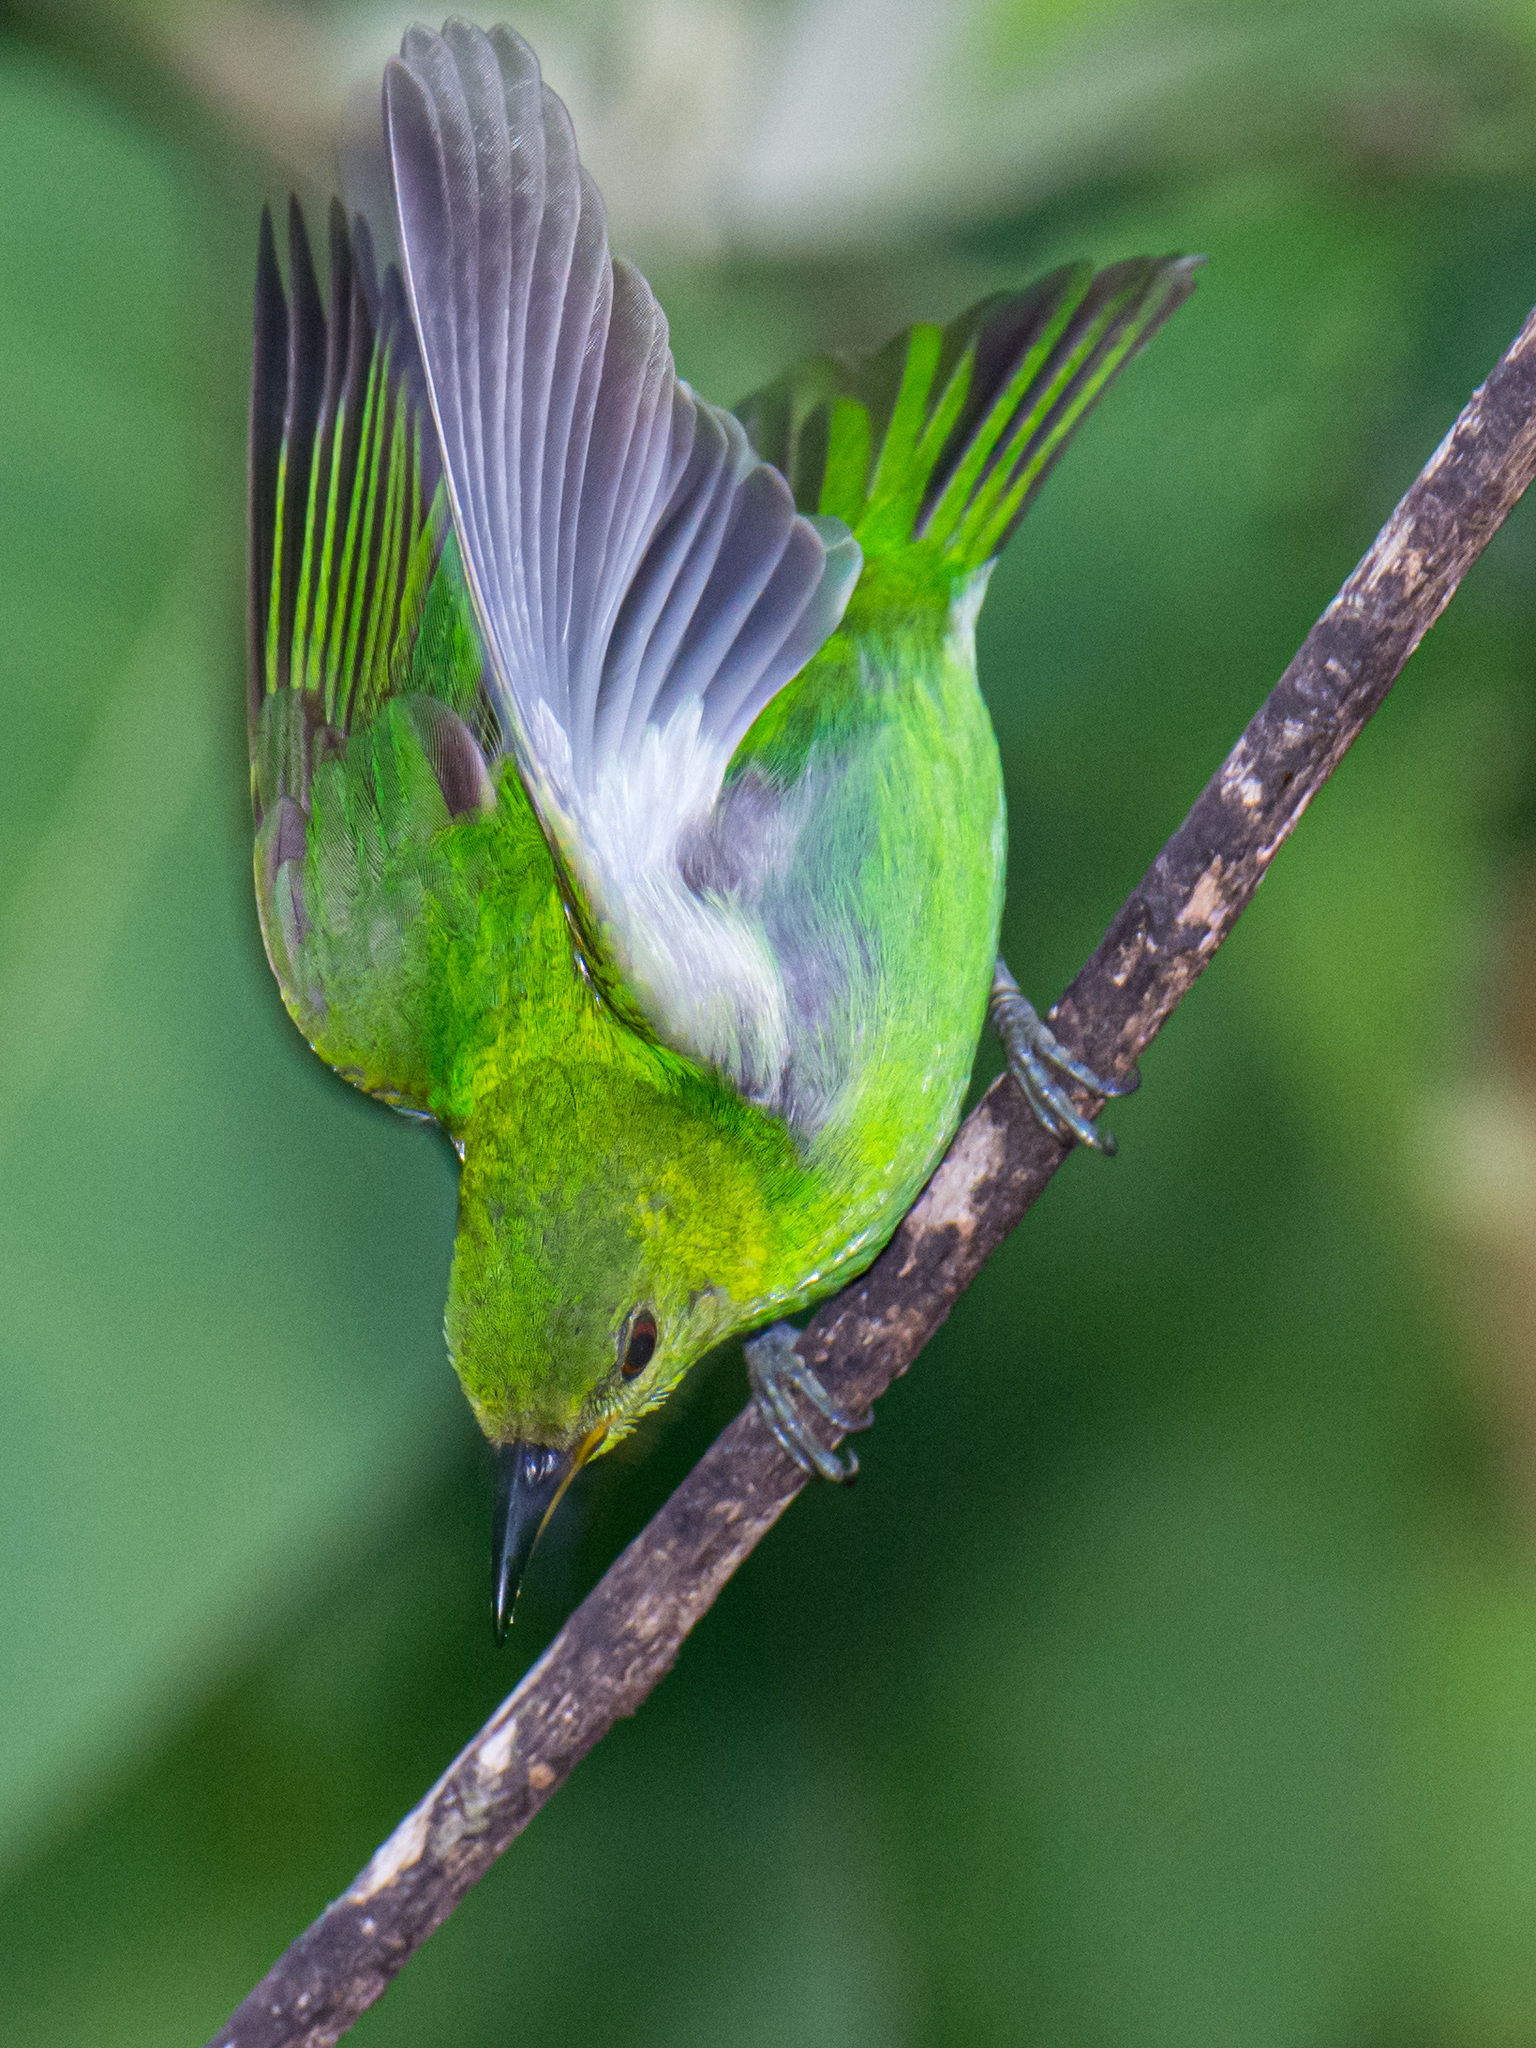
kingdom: Animalia
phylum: Chordata
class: Aves
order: Passeriformes
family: Thraupidae
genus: Chlorophanes
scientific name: Chlorophanes spiza
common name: Green honeycreeper
